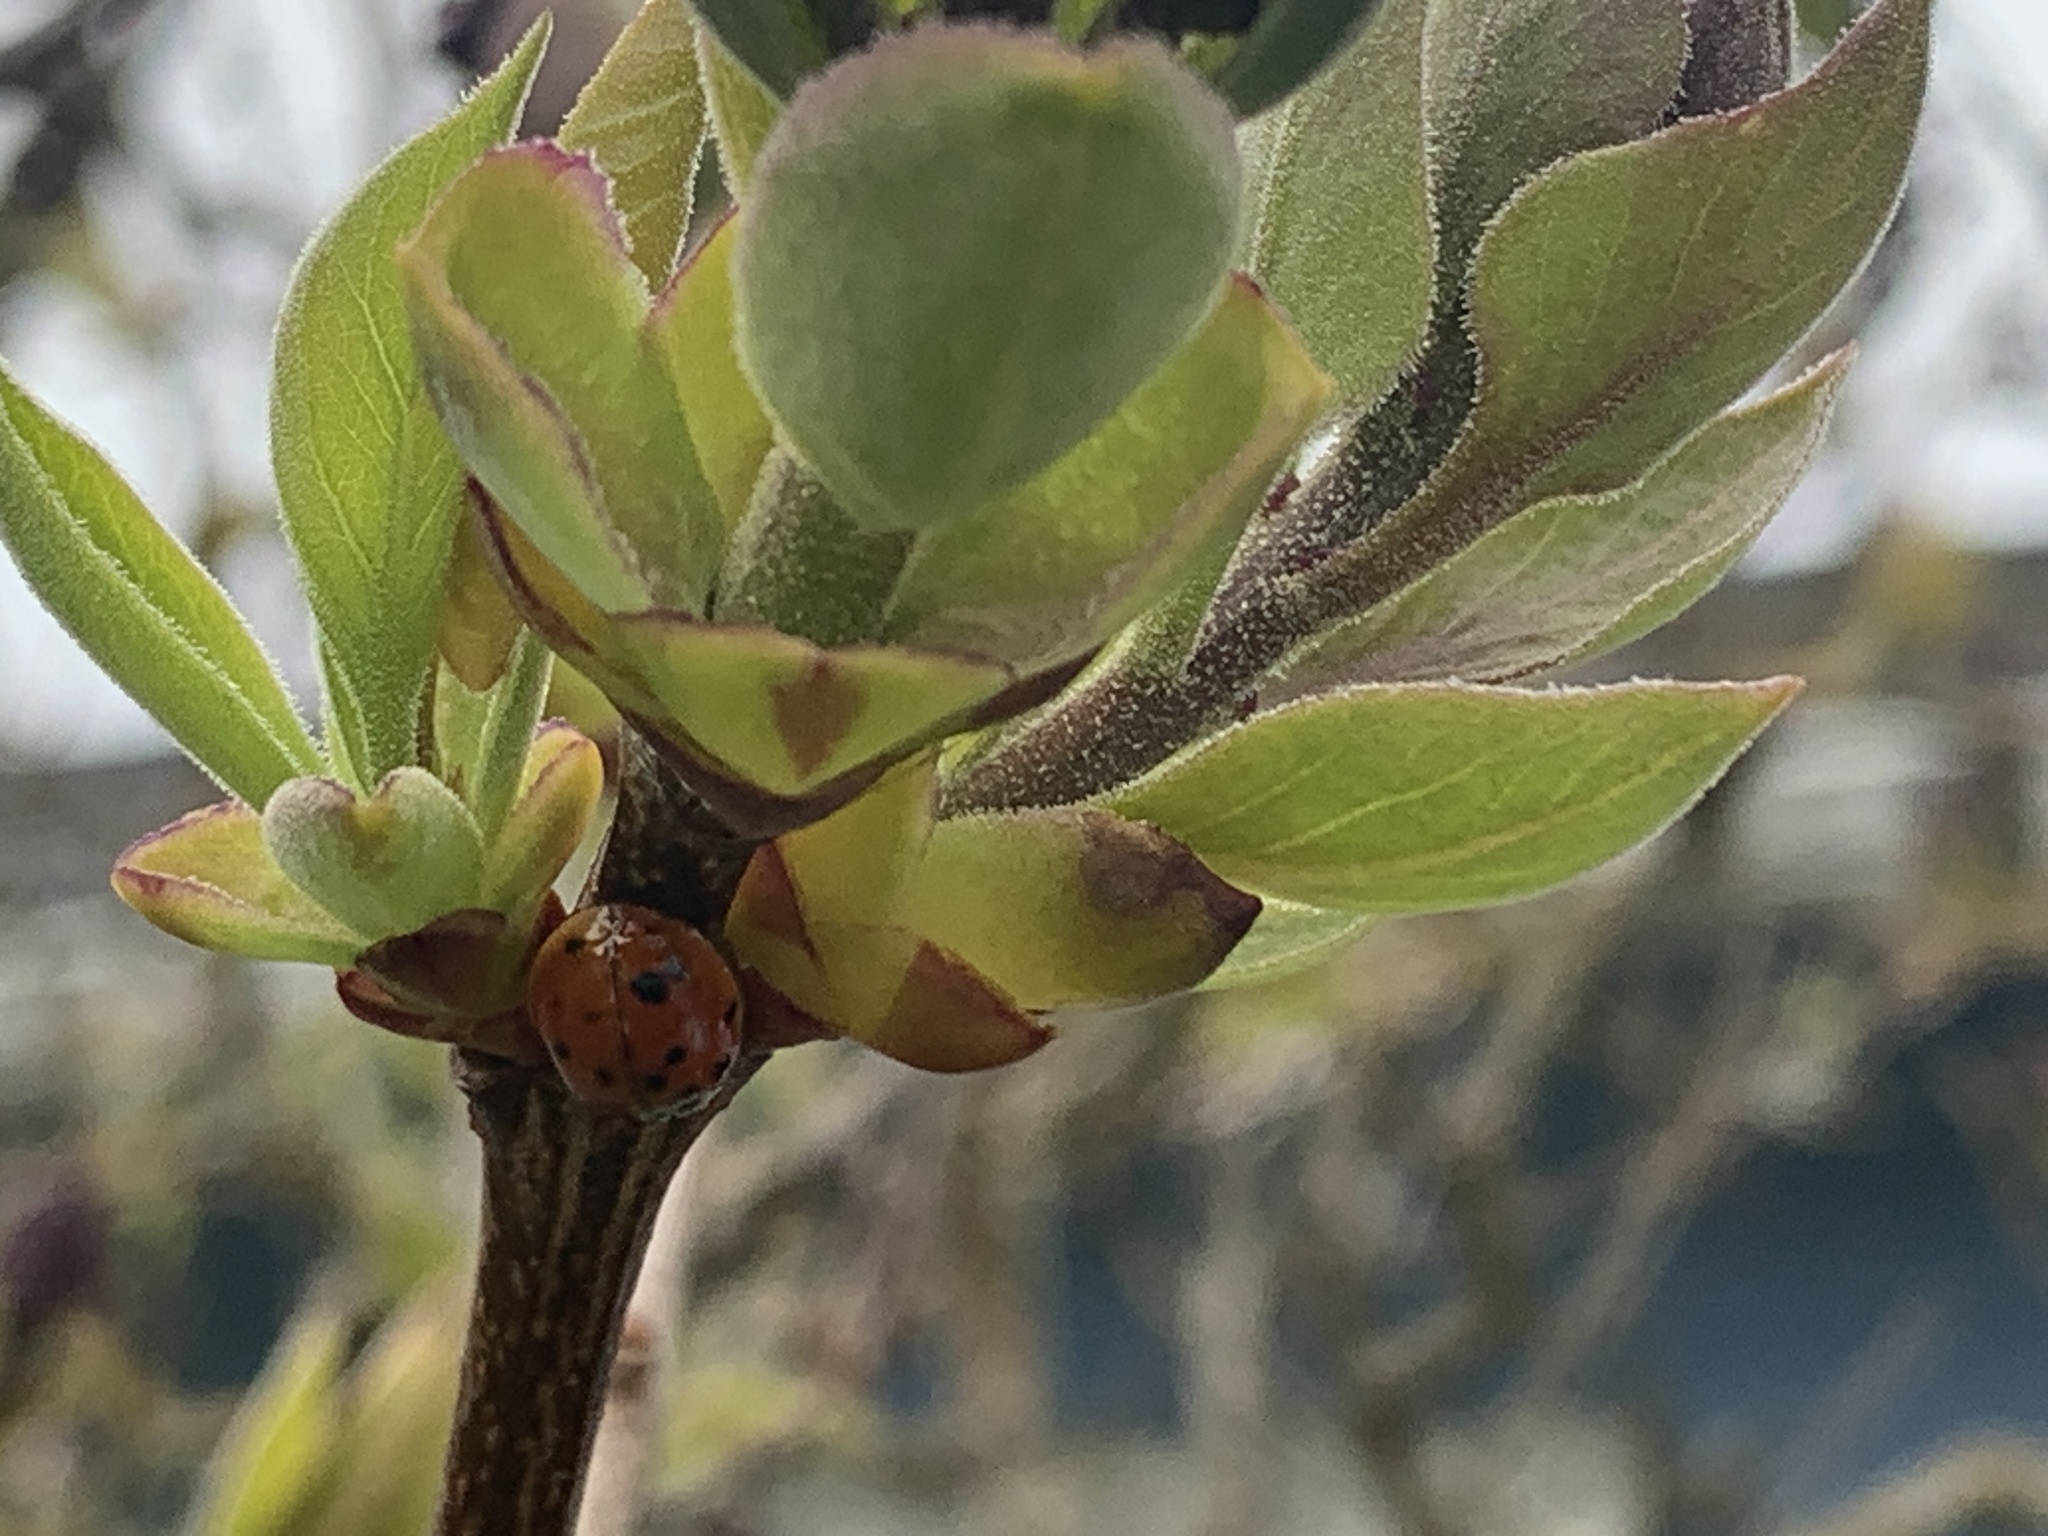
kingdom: Animalia
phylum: Arthropoda
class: Insecta
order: Coleoptera
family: Coccinellidae
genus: Harmonia
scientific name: Harmonia axyridis
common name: Harlequin ladybird
